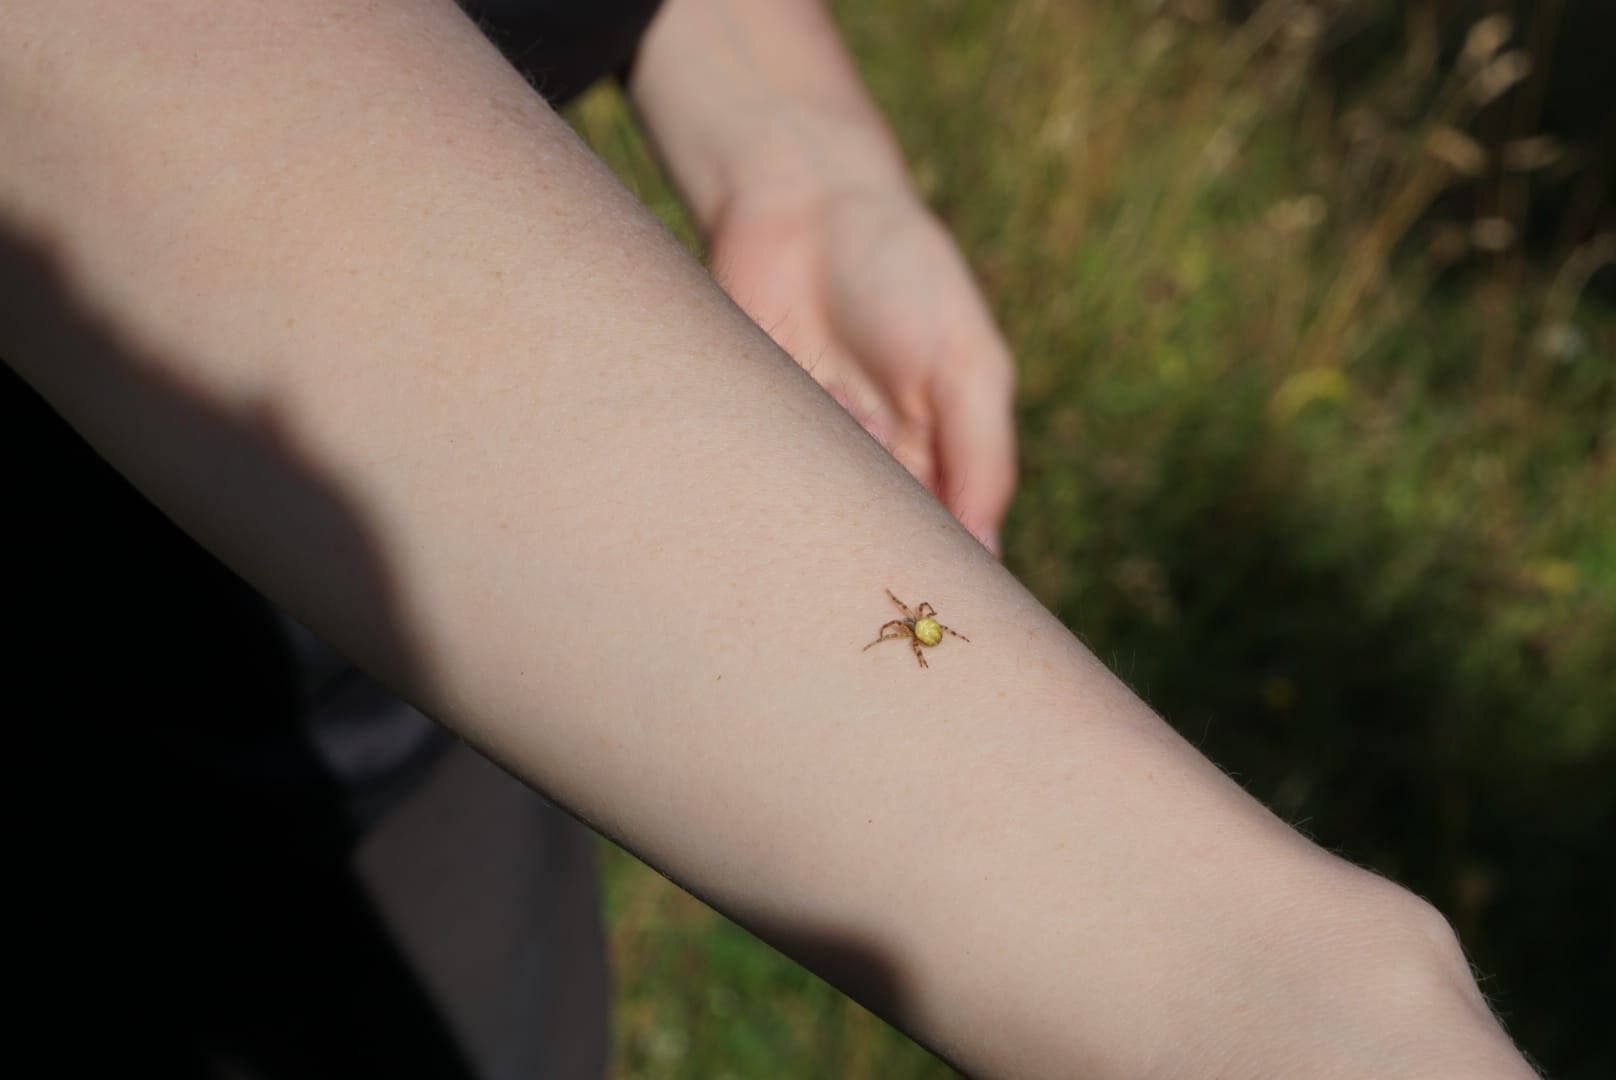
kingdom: Animalia
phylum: Arthropoda
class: Arachnida
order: Araneae
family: Araneidae
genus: Araneus
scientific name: Araneus quadratus
